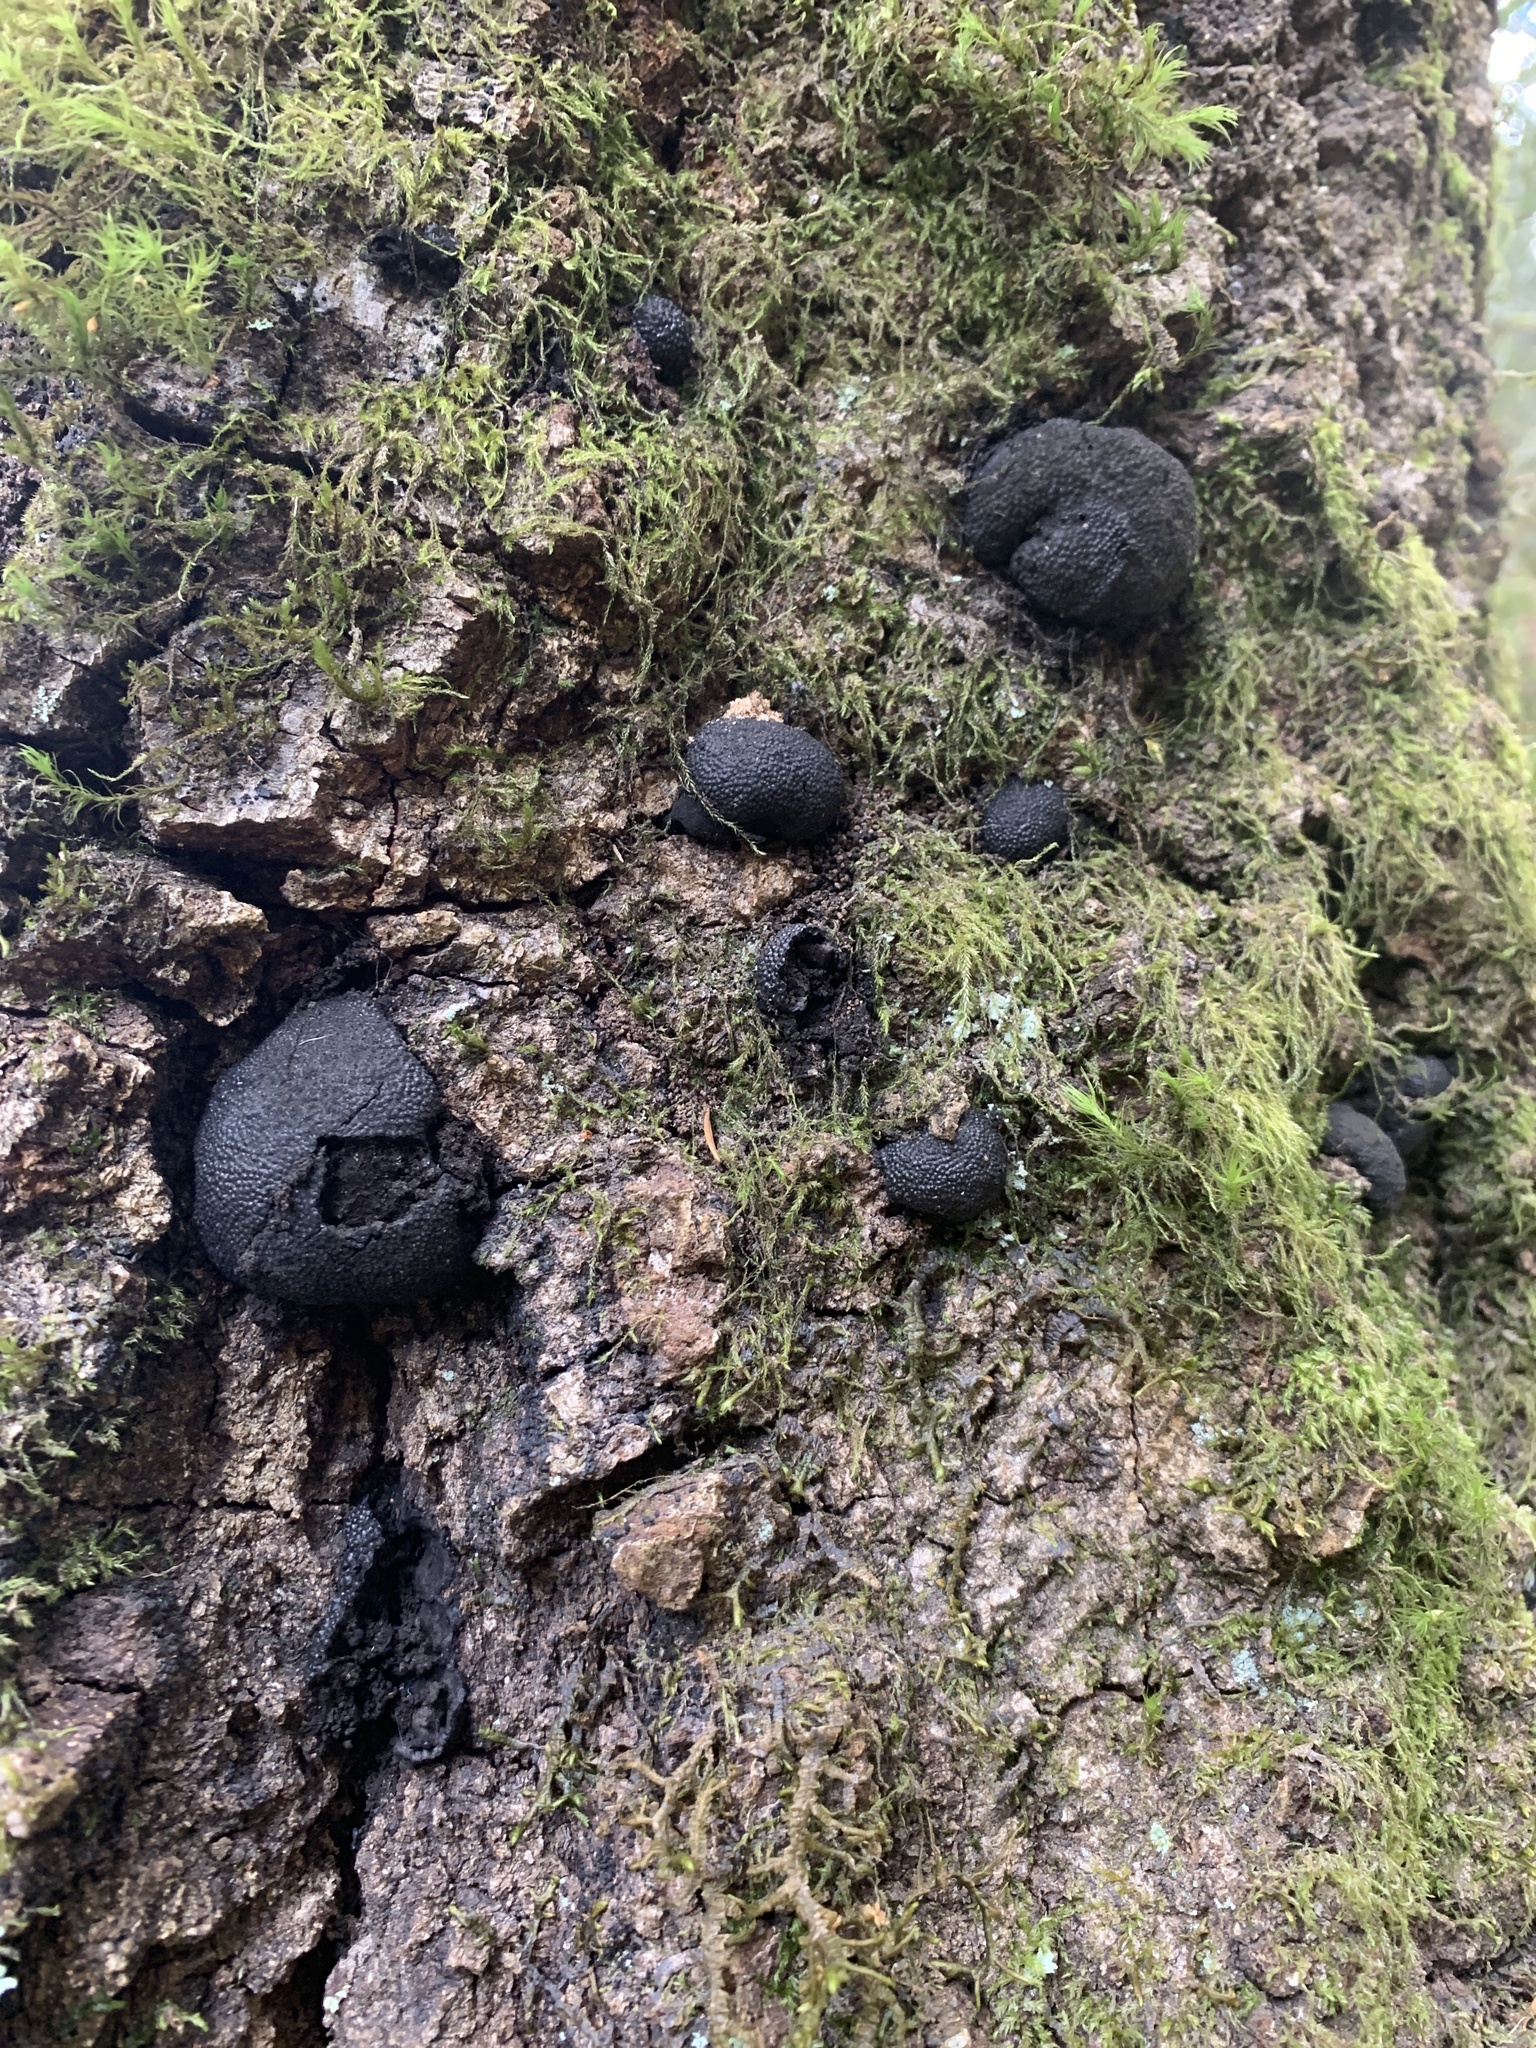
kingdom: Fungi
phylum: Ascomycota
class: Sordariomycetes
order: Xylariales
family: Hypoxylaceae
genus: Annulohypoxylon
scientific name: Annulohypoxylon thouarsianum
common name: Cramp balls
